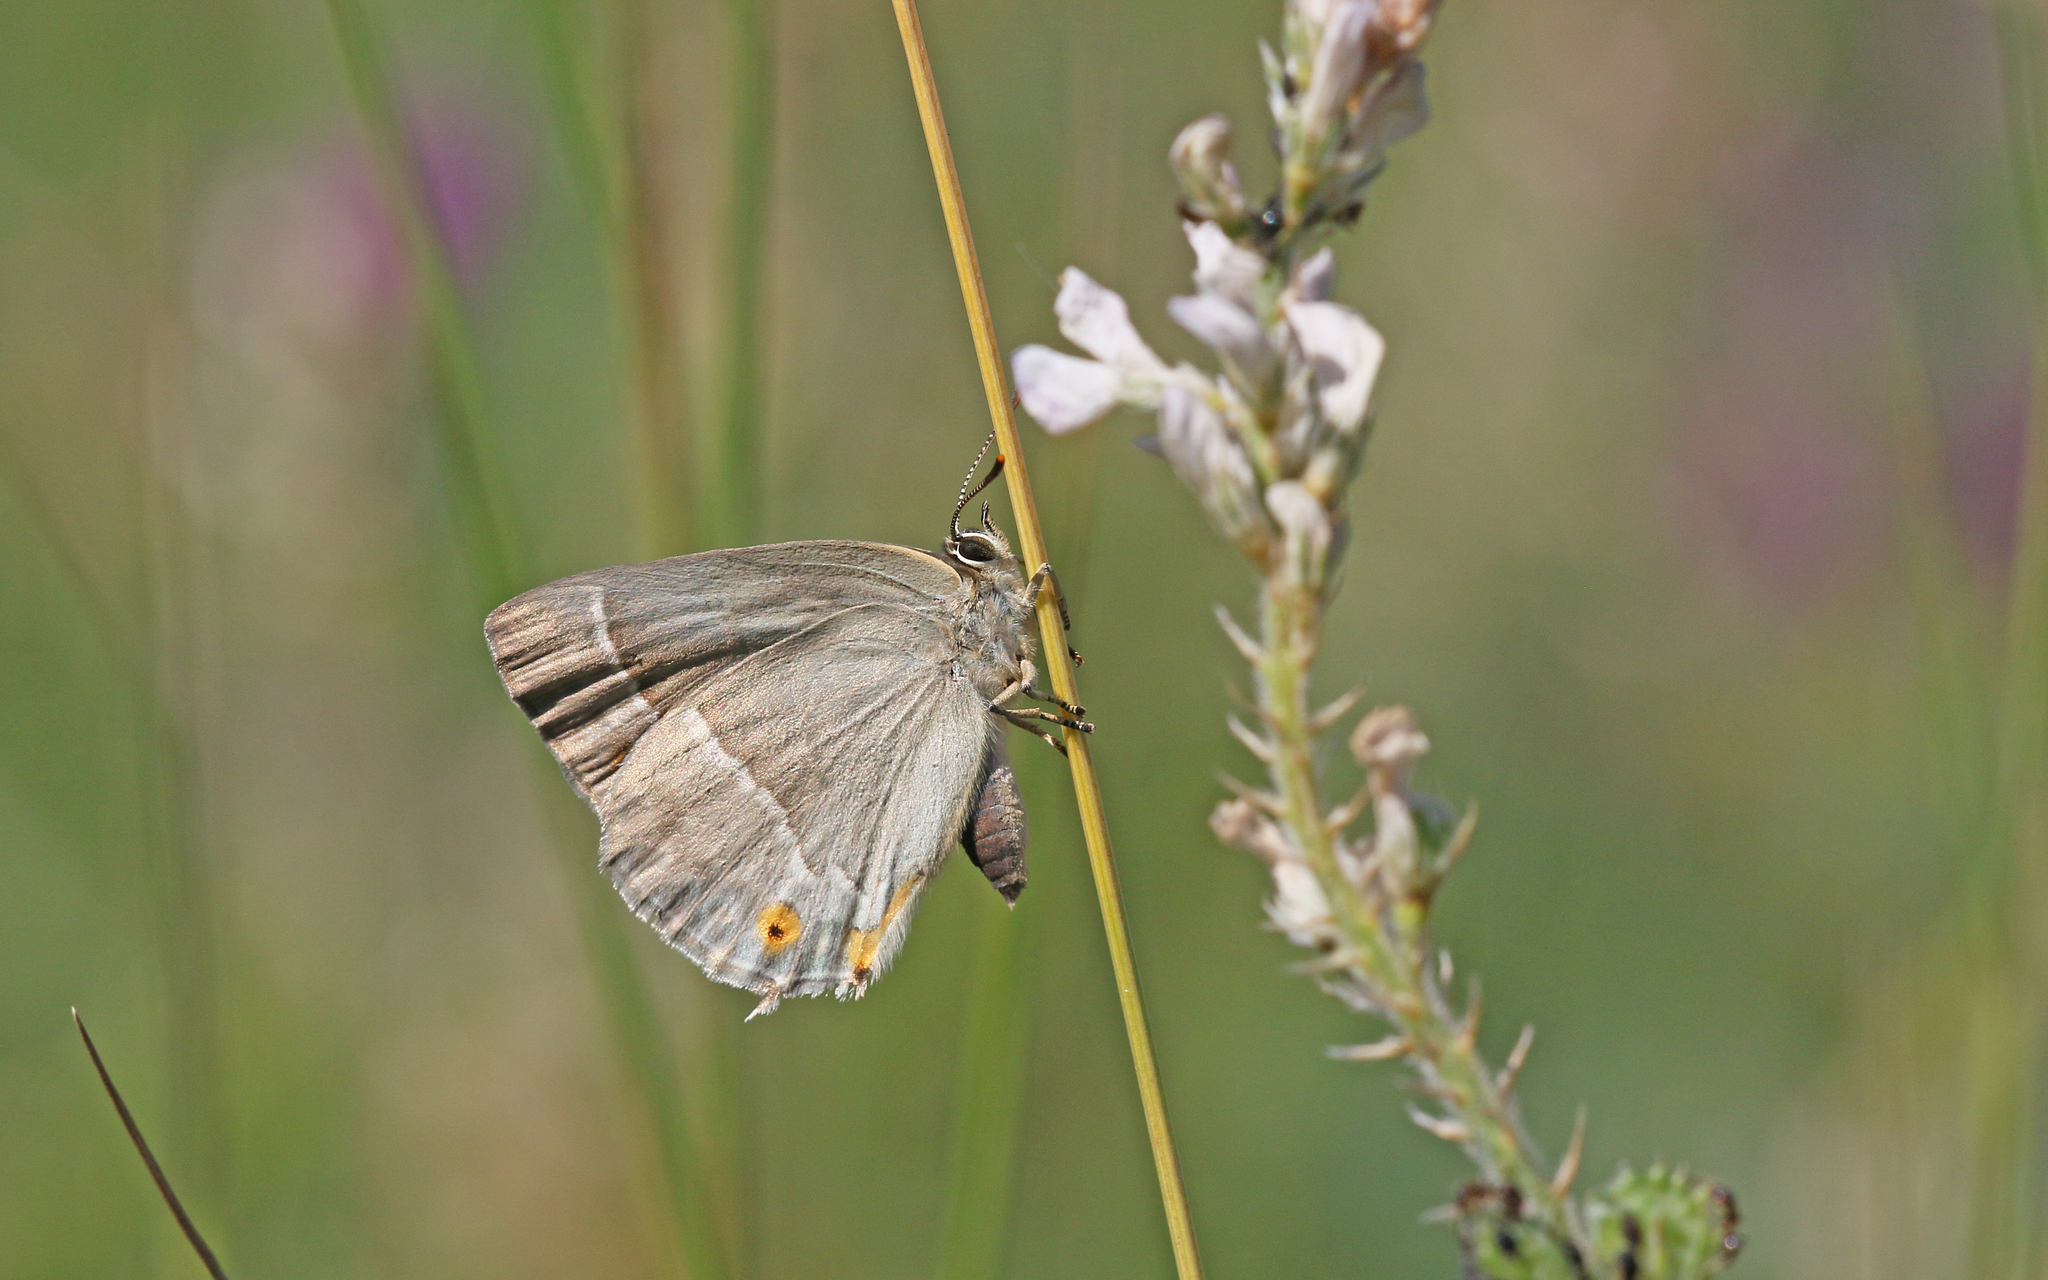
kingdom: Animalia
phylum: Arthropoda
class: Insecta
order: Lepidoptera
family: Lycaenidae
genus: Quercusia
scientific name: Quercusia quercus
